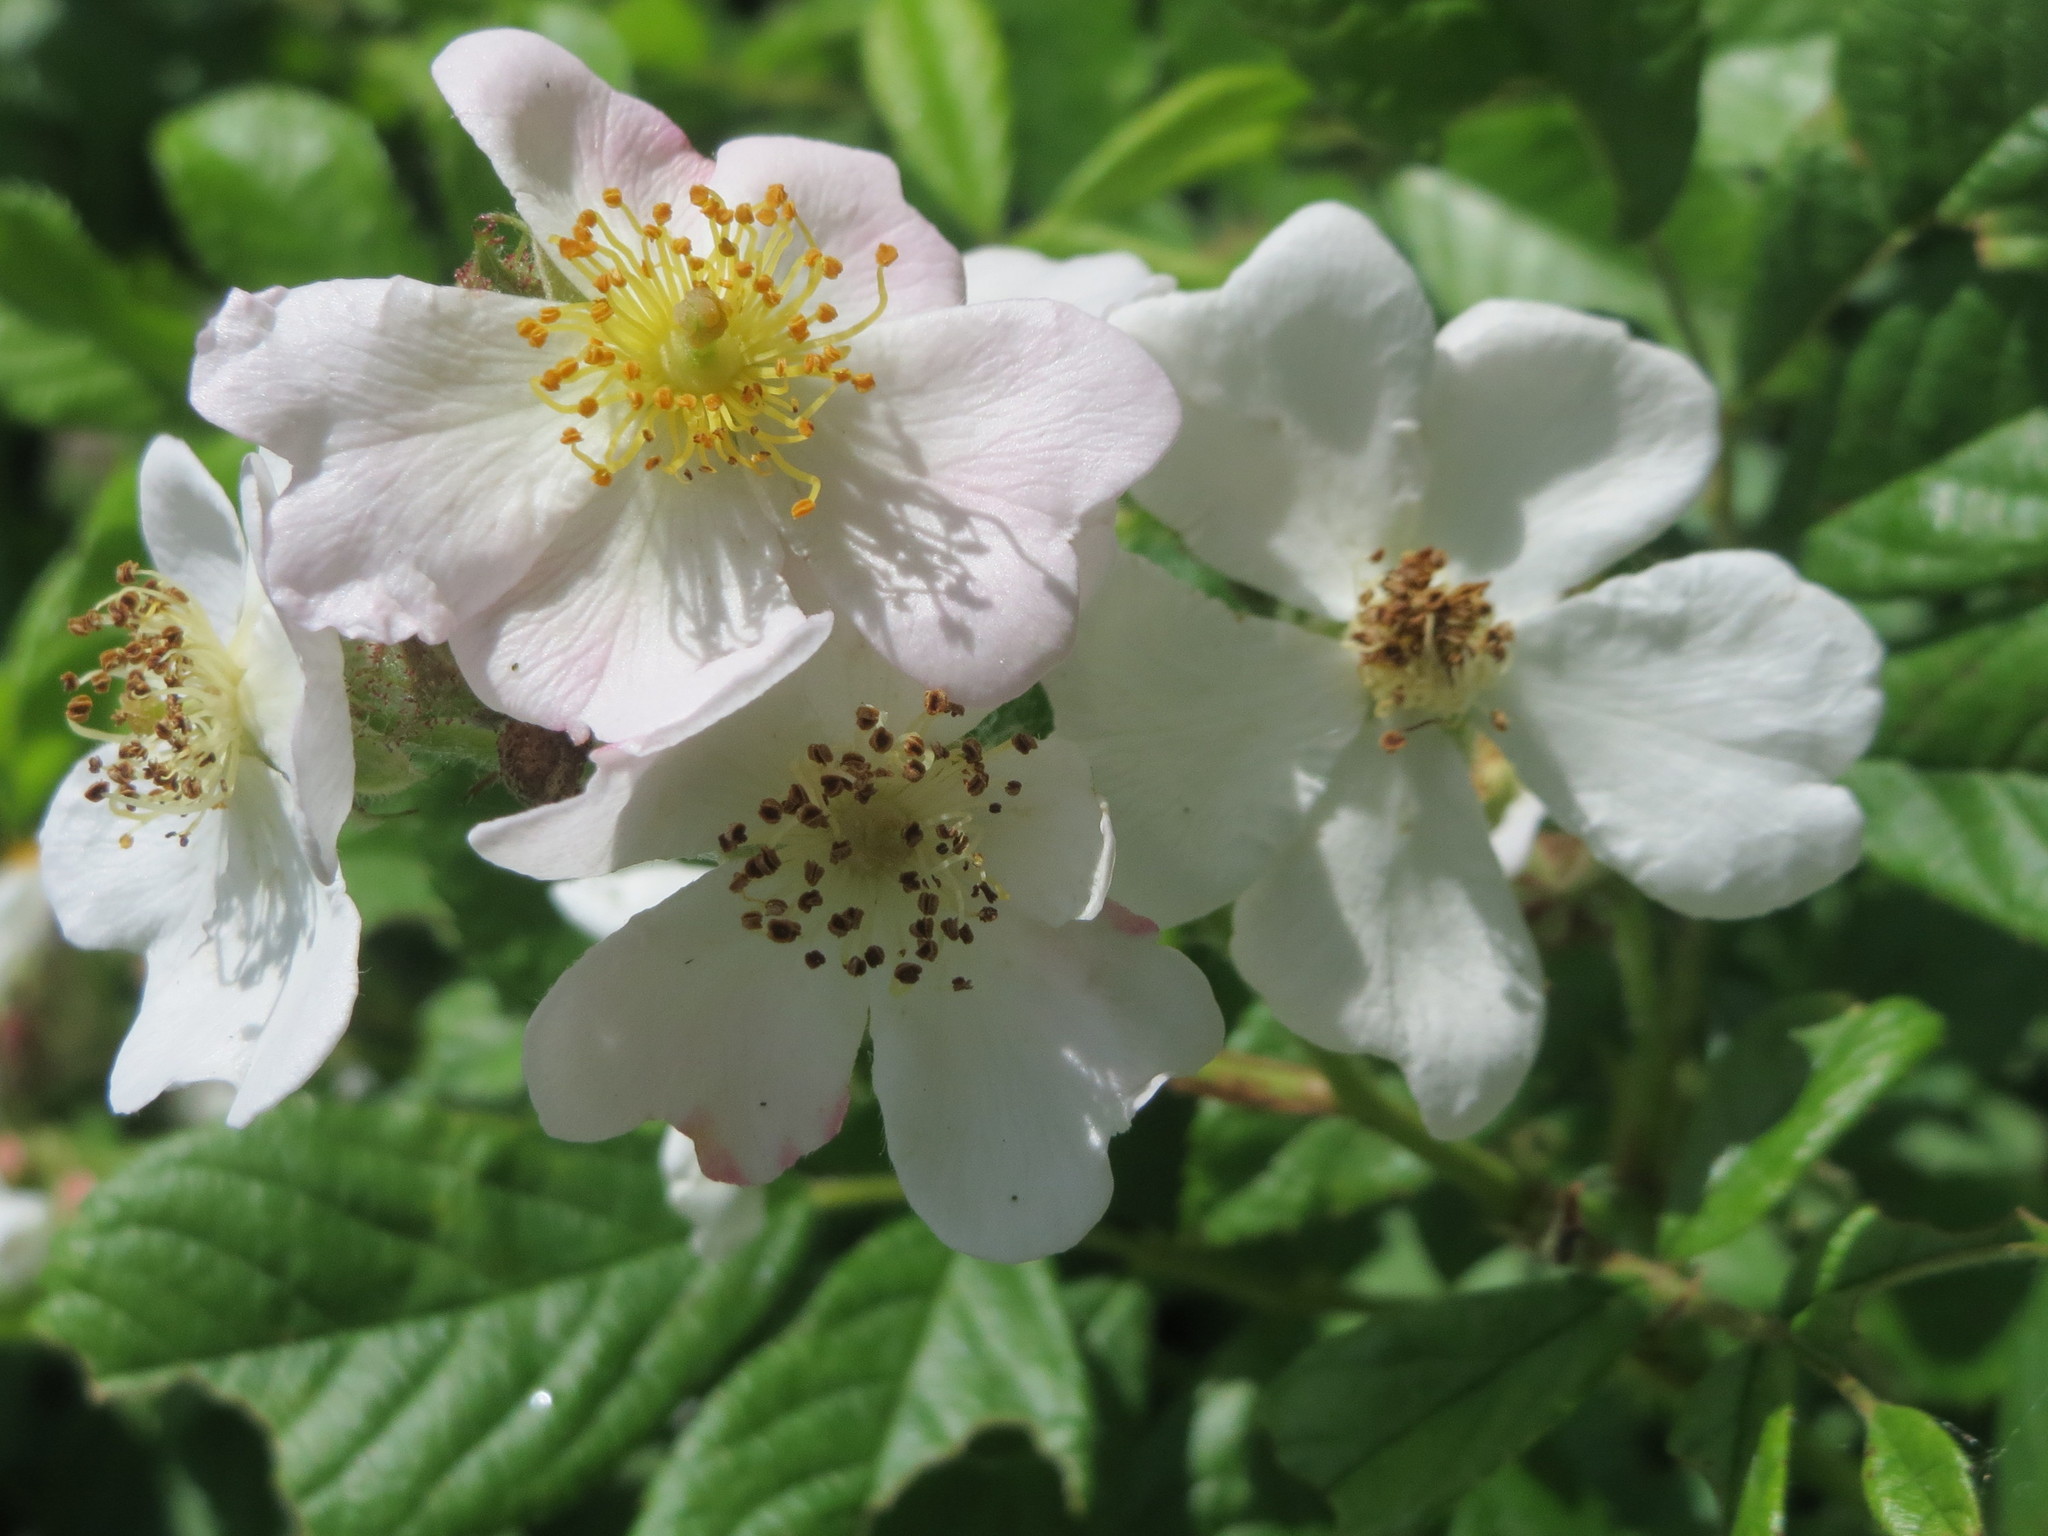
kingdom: Plantae
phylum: Tracheophyta
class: Magnoliopsida
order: Rosales
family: Rosaceae
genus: Rosa
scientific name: Rosa multiflora
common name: Multiflora rose
